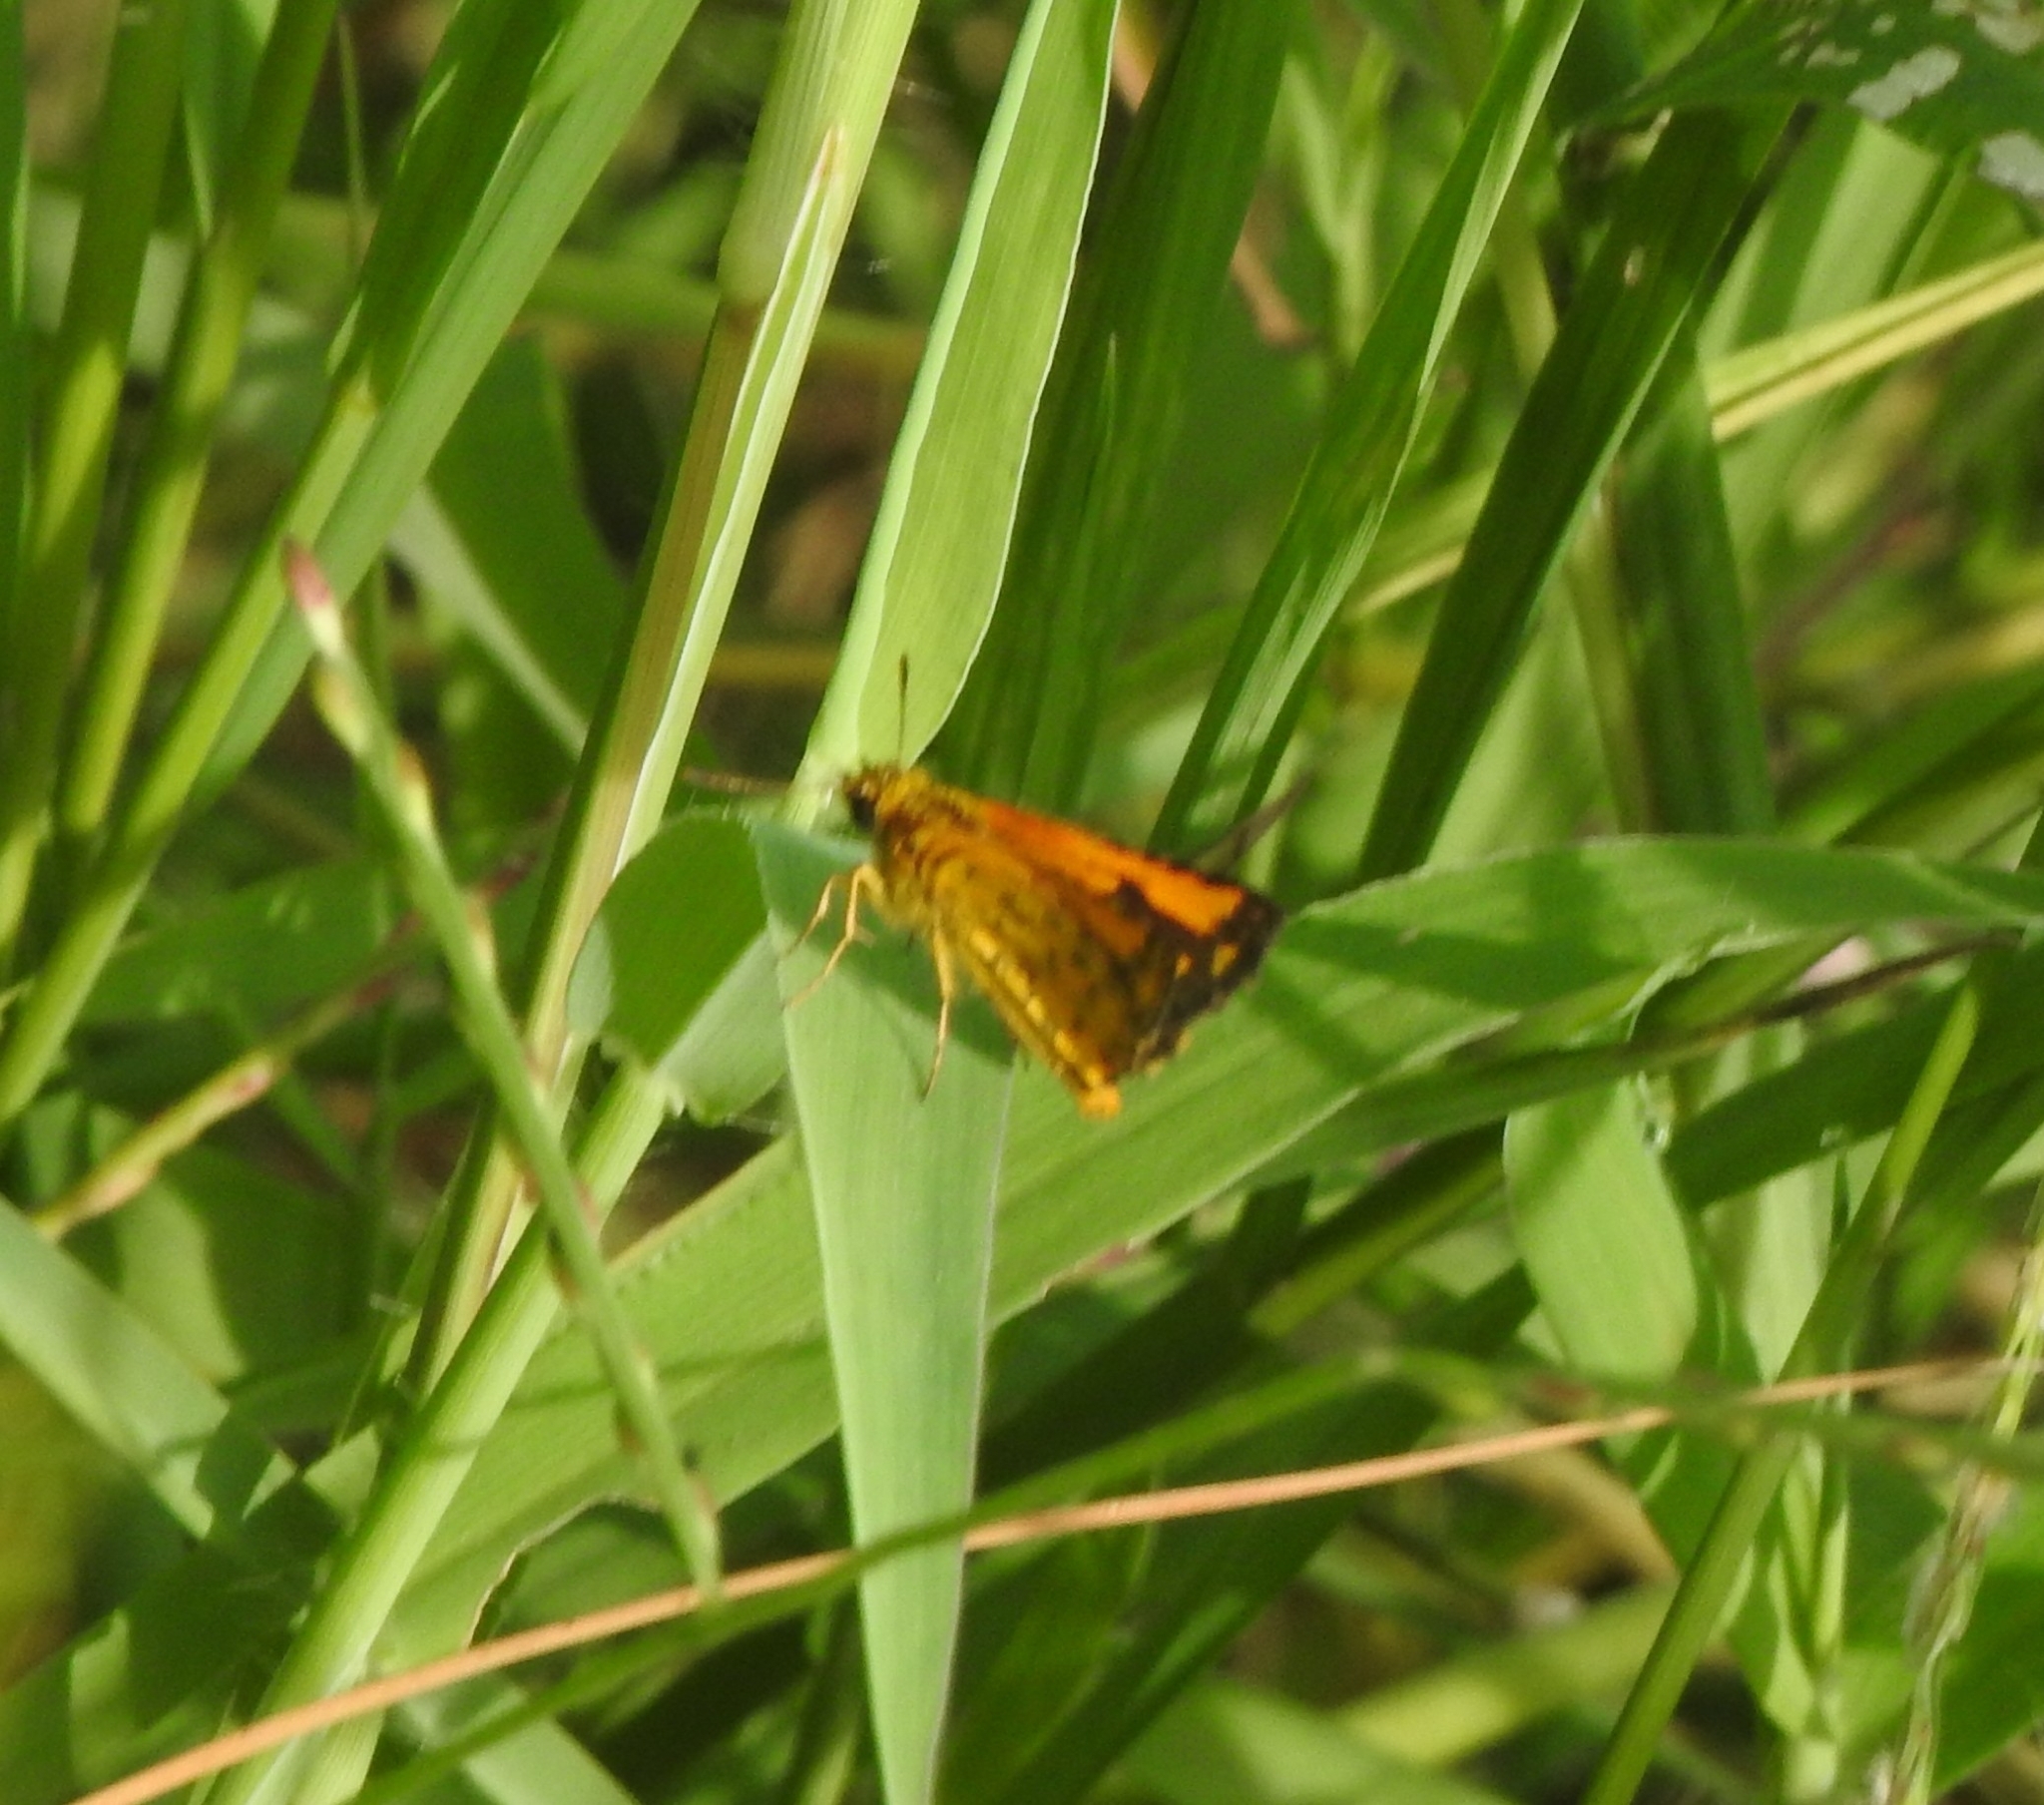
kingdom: Animalia
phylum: Arthropoda
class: Insecta
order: Lepidoptera
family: Hesperiidae
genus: Ampittia
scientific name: Ampittia dioscorides
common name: Common bush hopper
